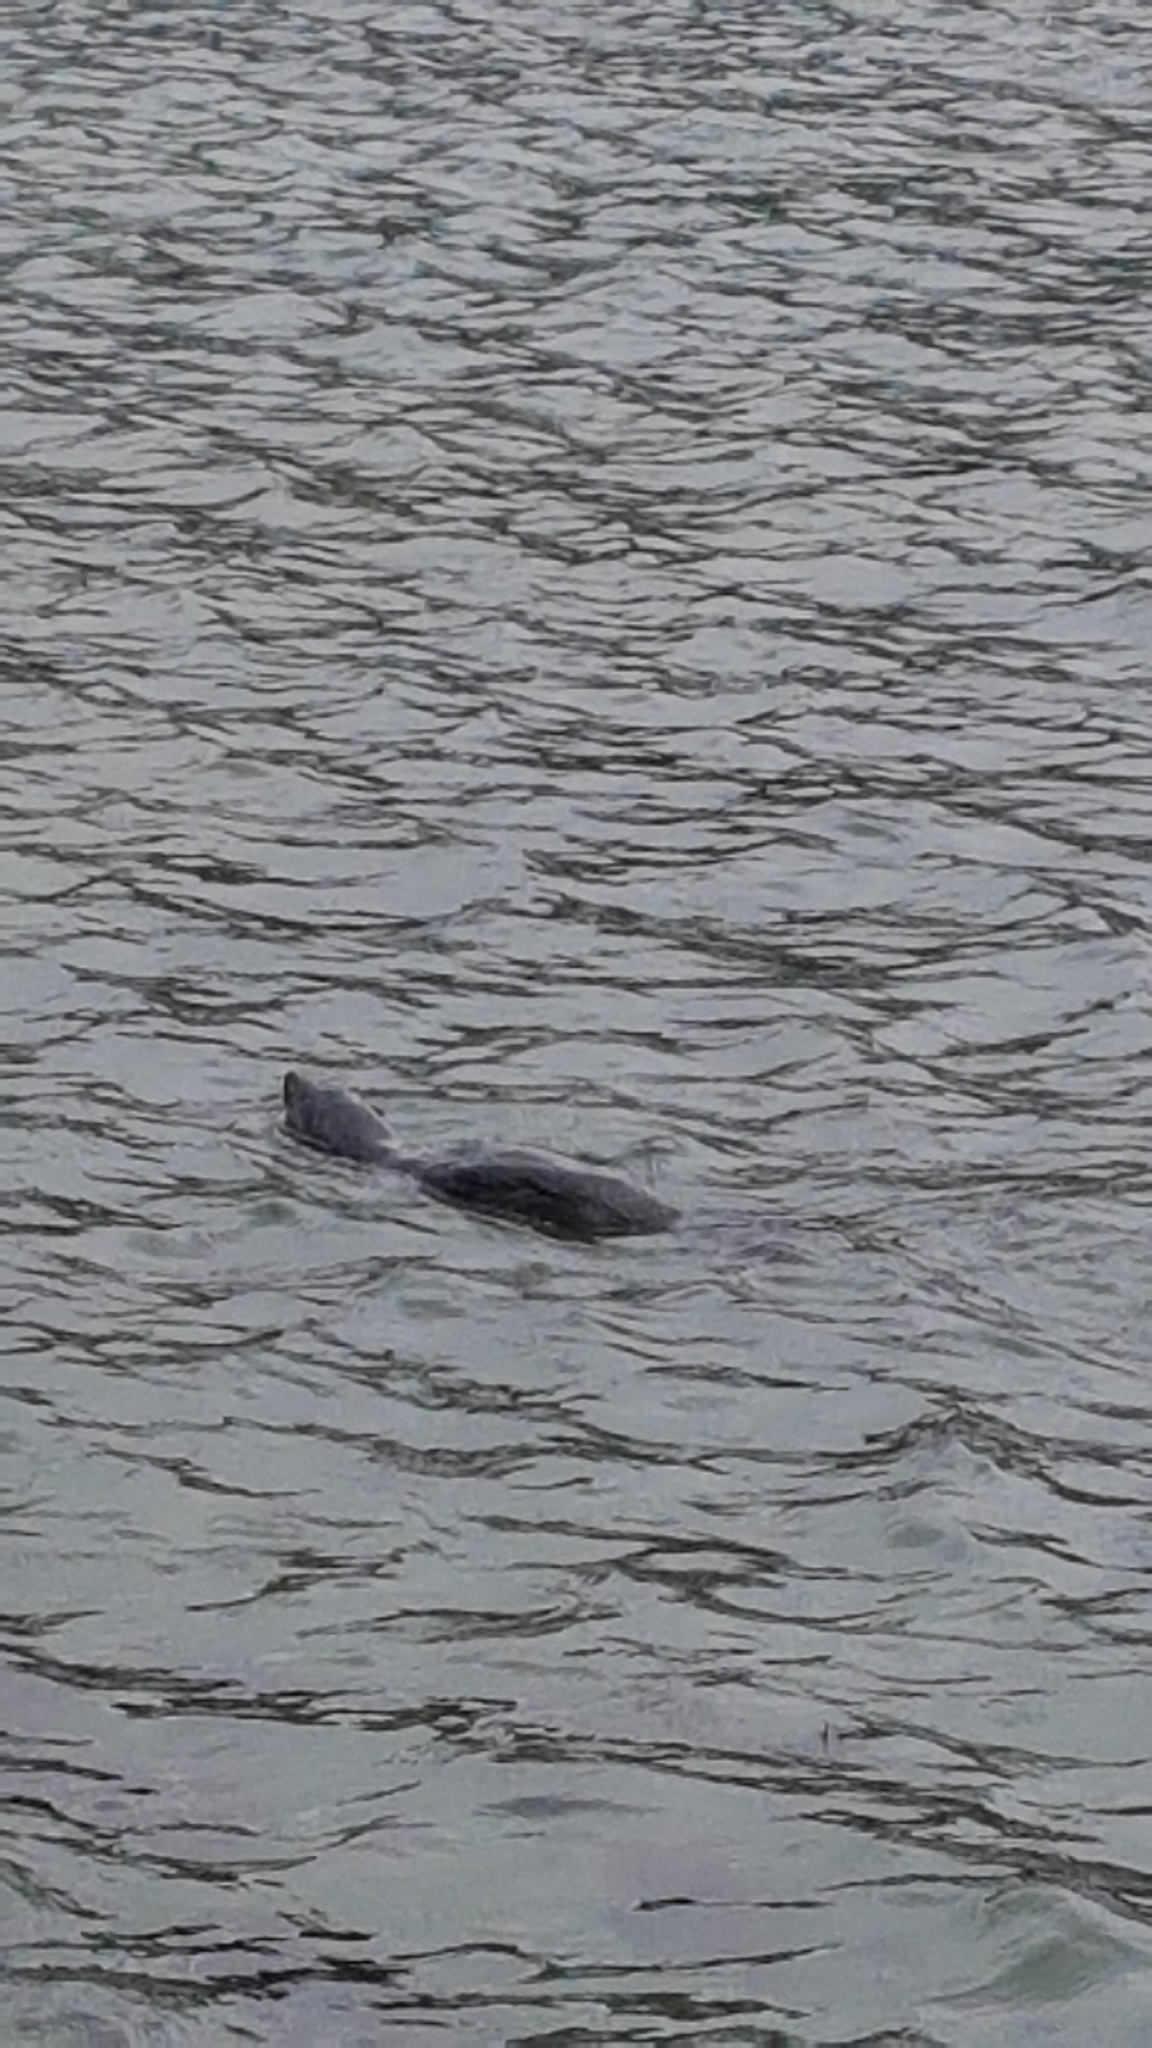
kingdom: Animalia
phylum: Chordata
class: Mammalia
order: Carnivora
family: Otariidae
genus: Arctocephalus
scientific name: Arctocephalus forsteri
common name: New zealand fur seal
